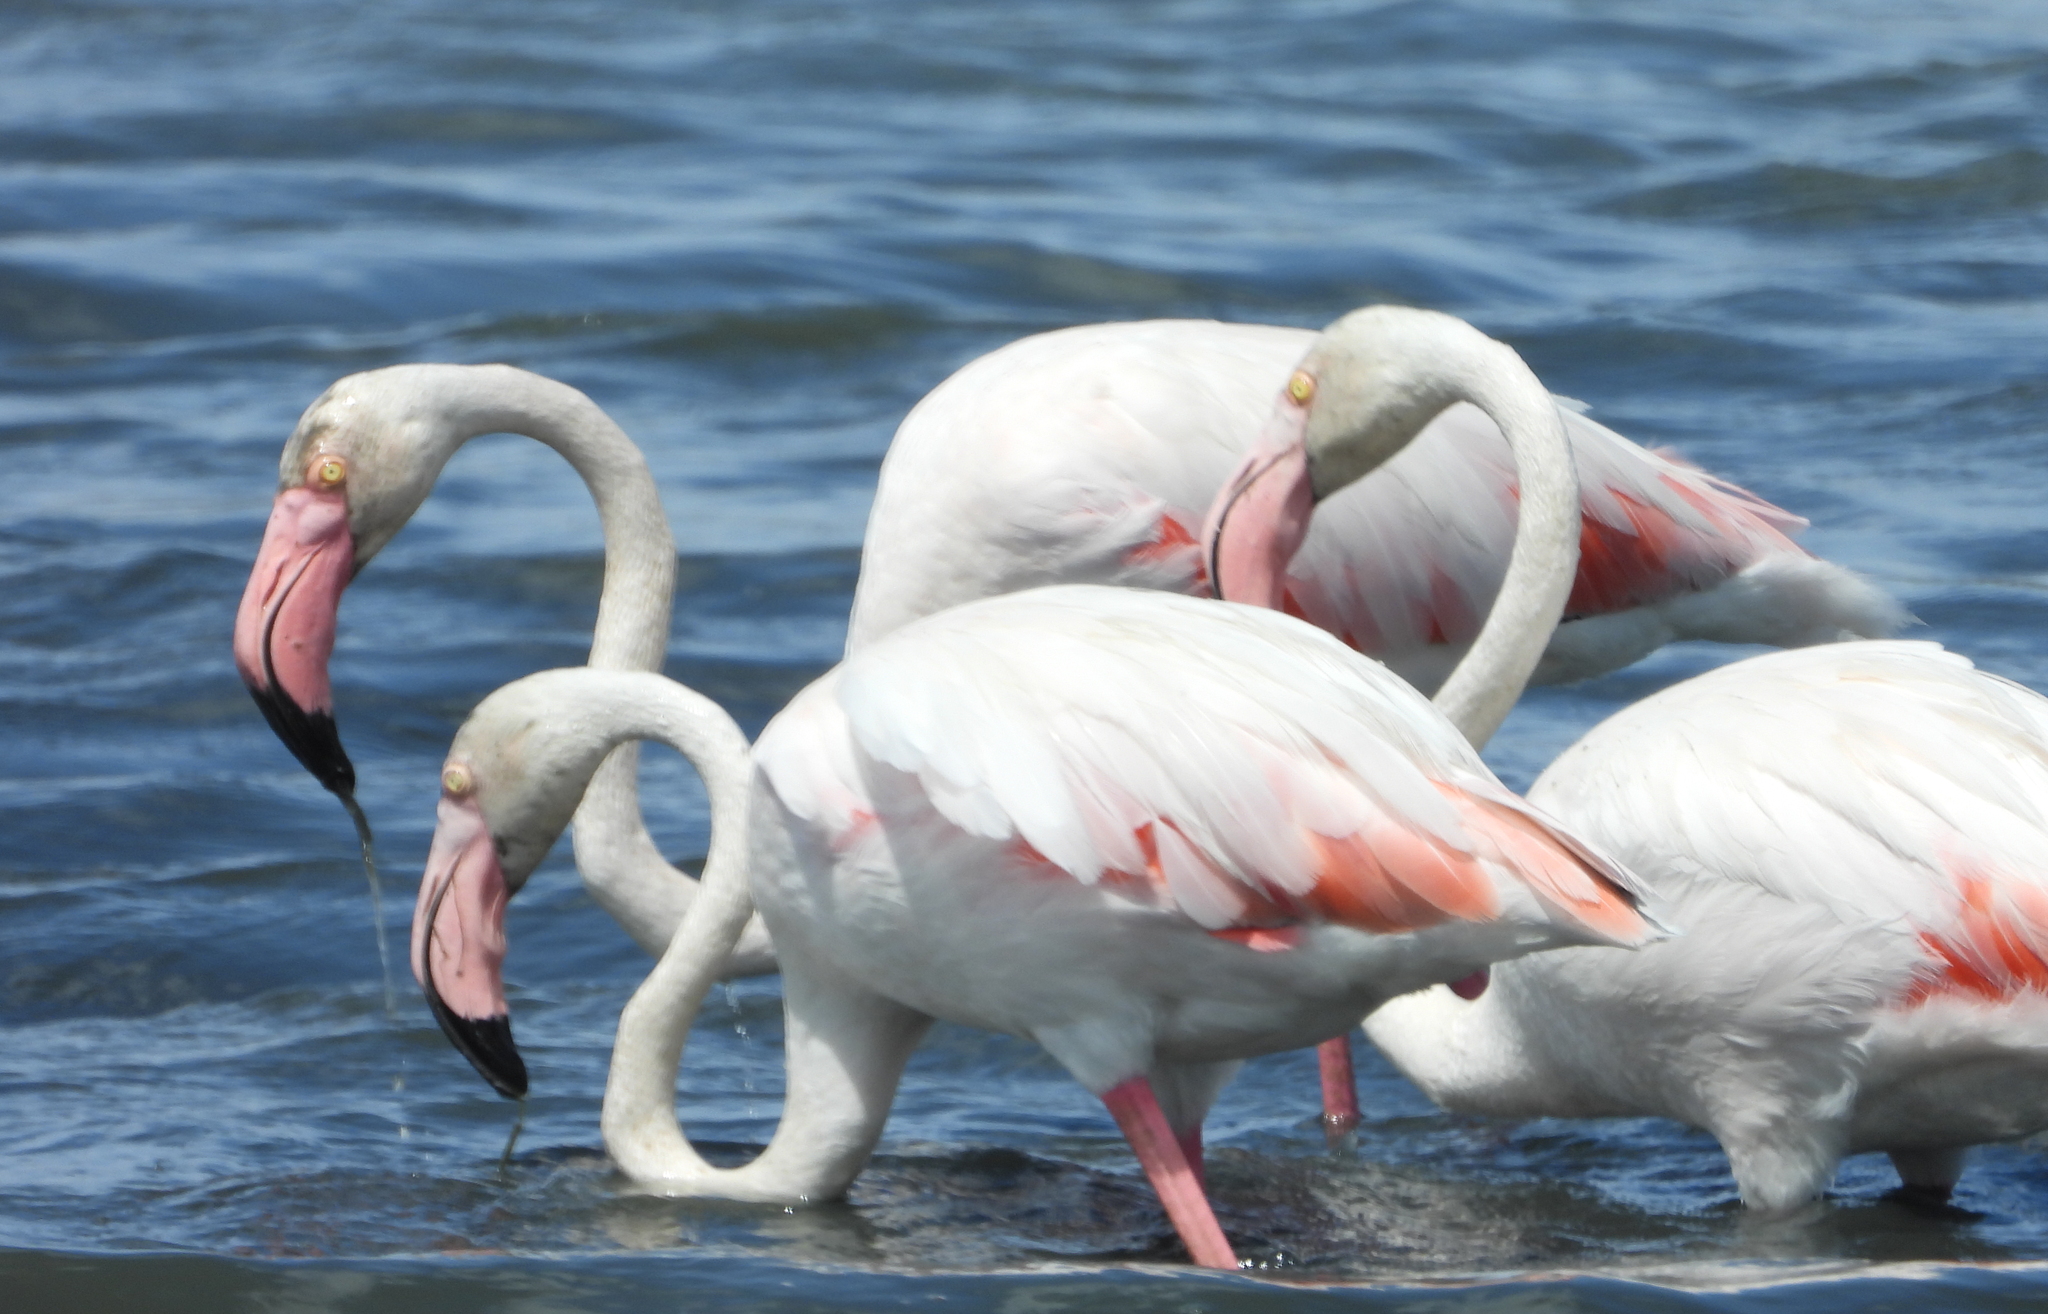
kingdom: Animalia
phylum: Chordata
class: Aves
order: Phoenicopteriformes
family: Phoenicopteridae
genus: Phoenicopterus
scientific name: Phoenicopterus roseus
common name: Greater flamingo
